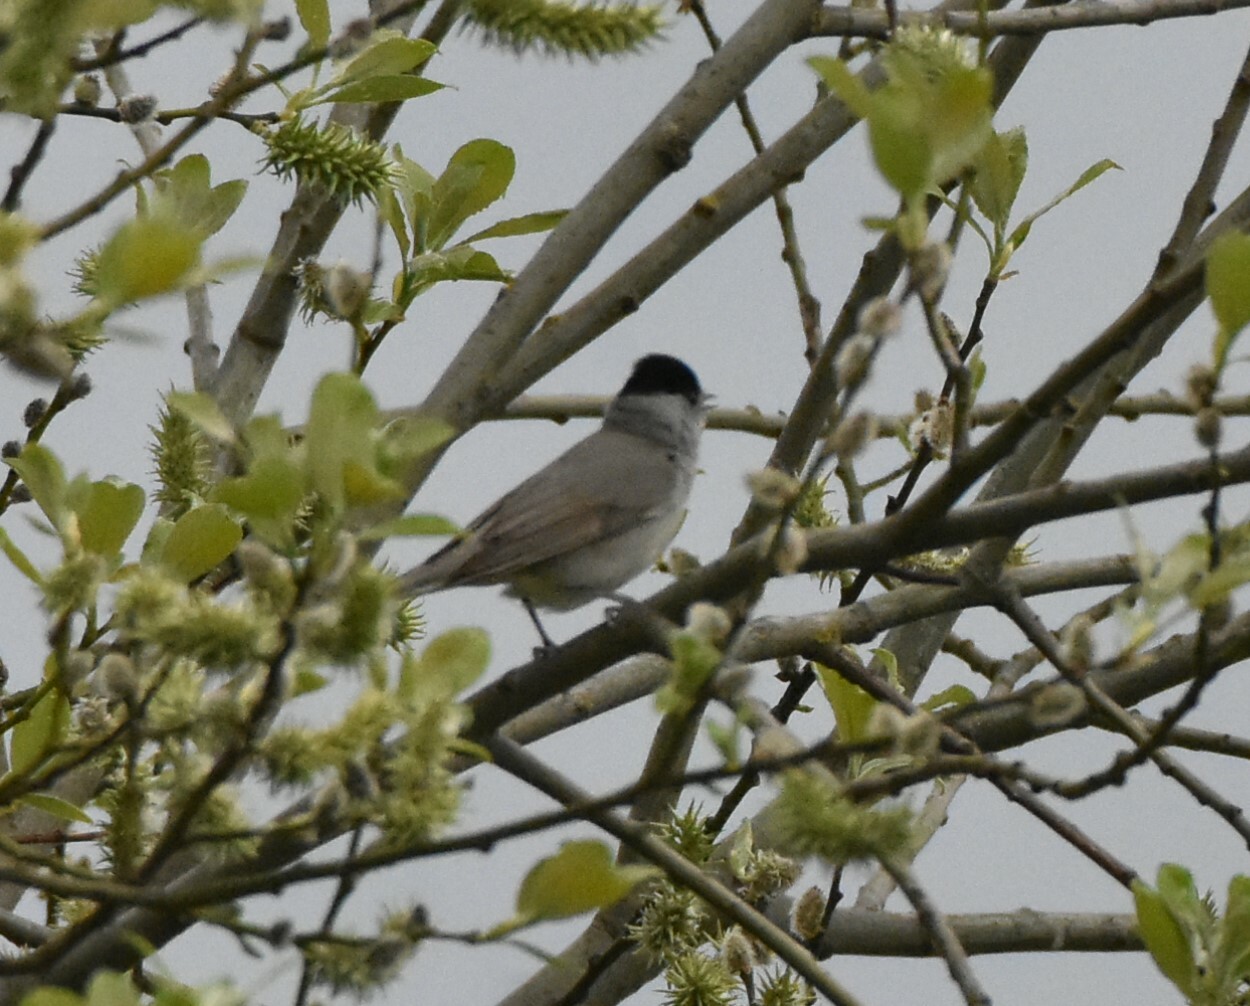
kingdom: Animalia
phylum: Chordata
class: Aves
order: Passeriformes
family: Sylviidae
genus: Sylvia
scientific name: Sylvia atricapilla
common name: Eurasian blackcap
